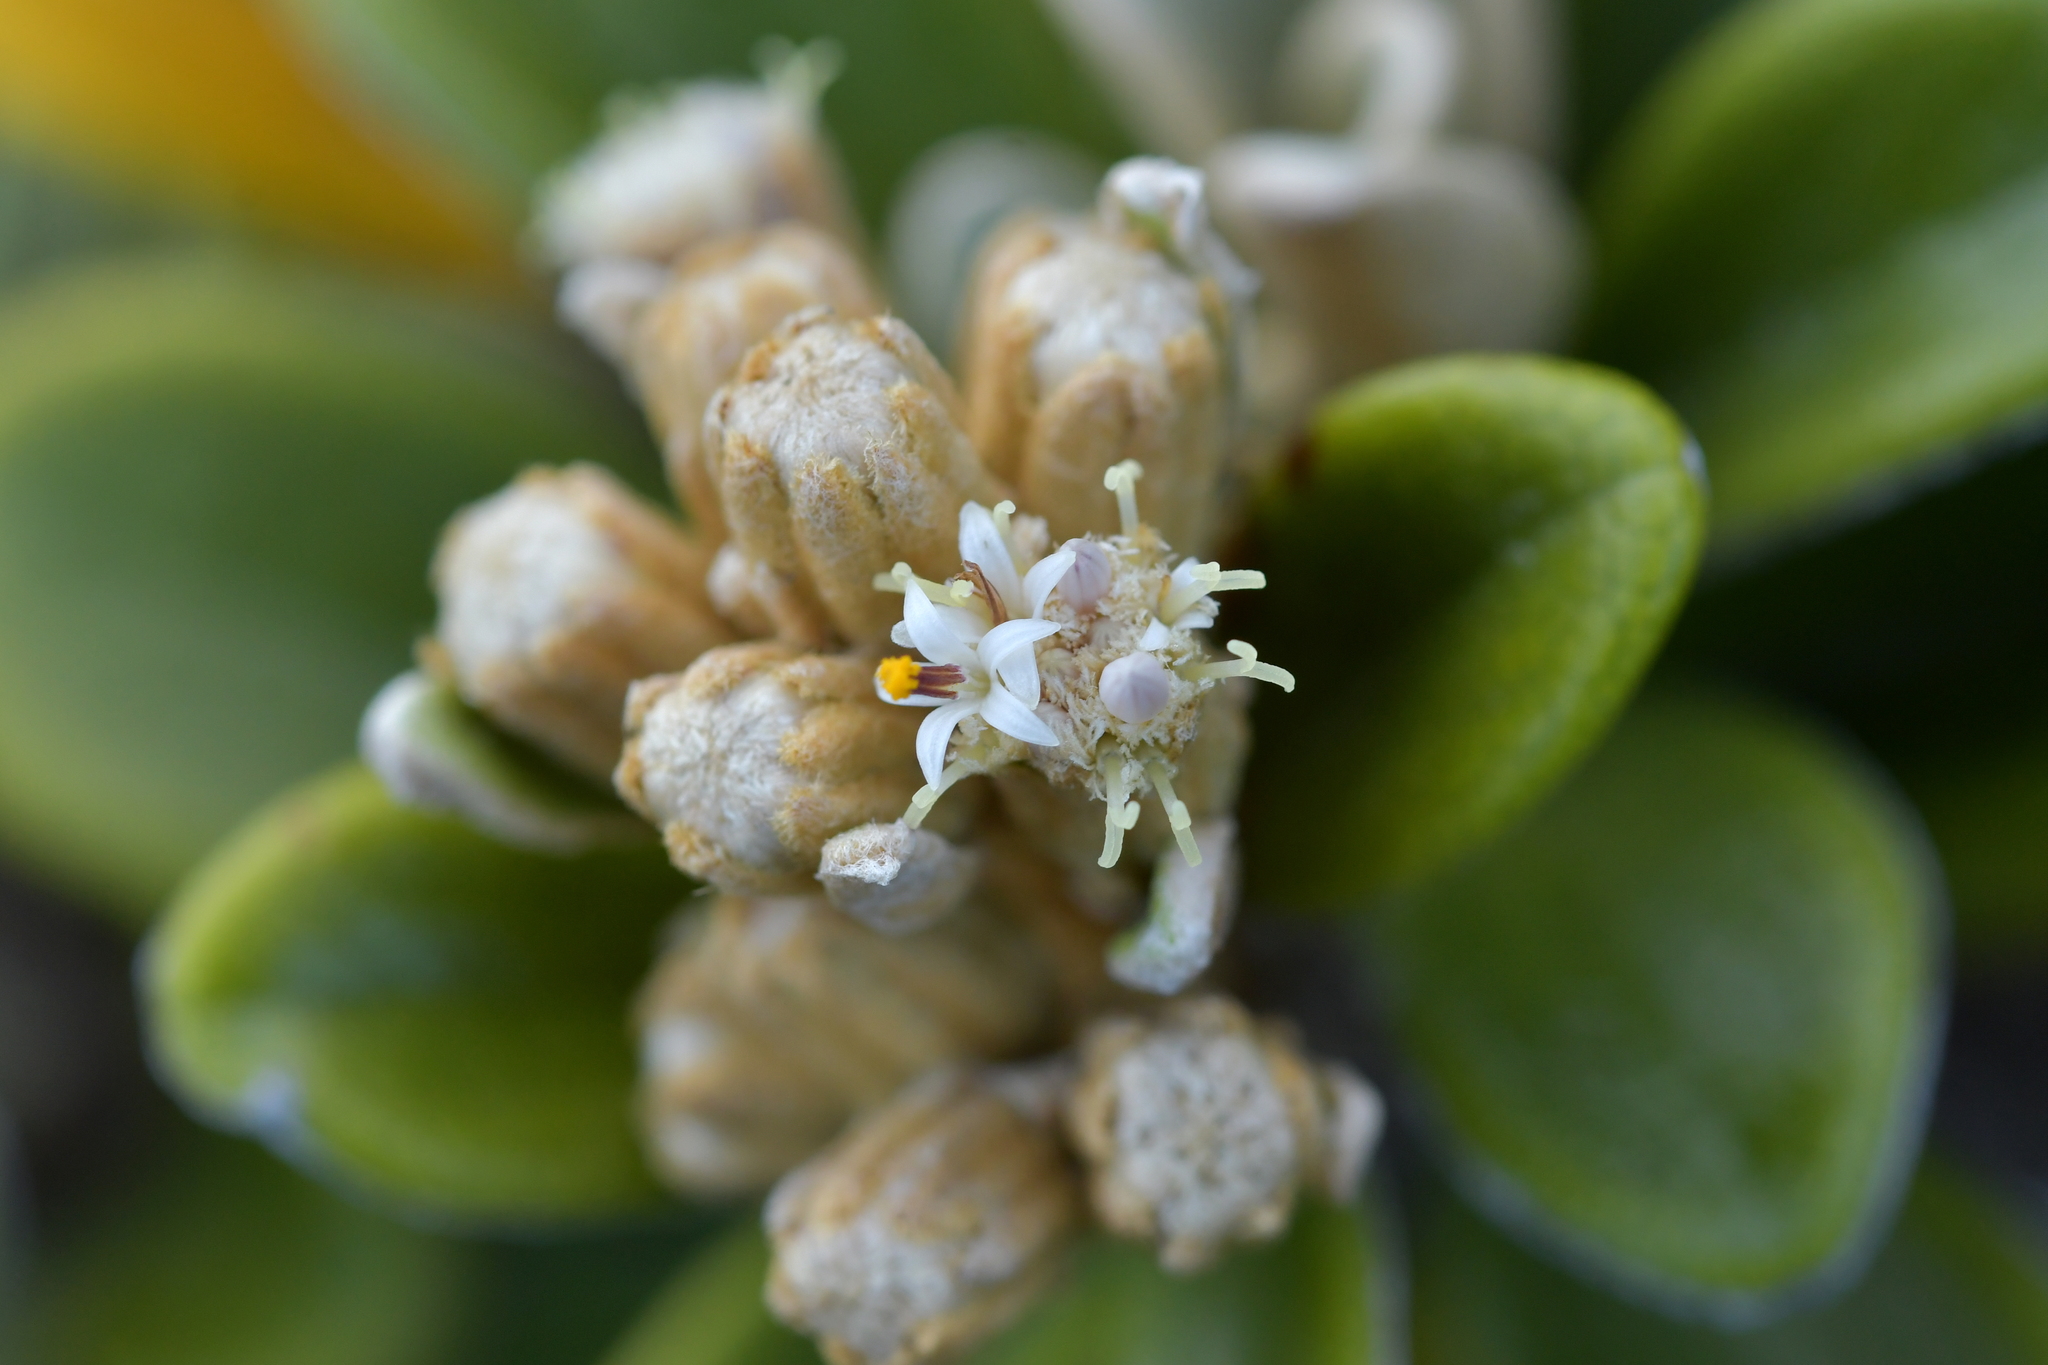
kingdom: Plantae
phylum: Tracheophyta
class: Magnoliopsida
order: Asterales
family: Asteraceae
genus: Brachyglottis
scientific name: Brachyglottis bidwillii
